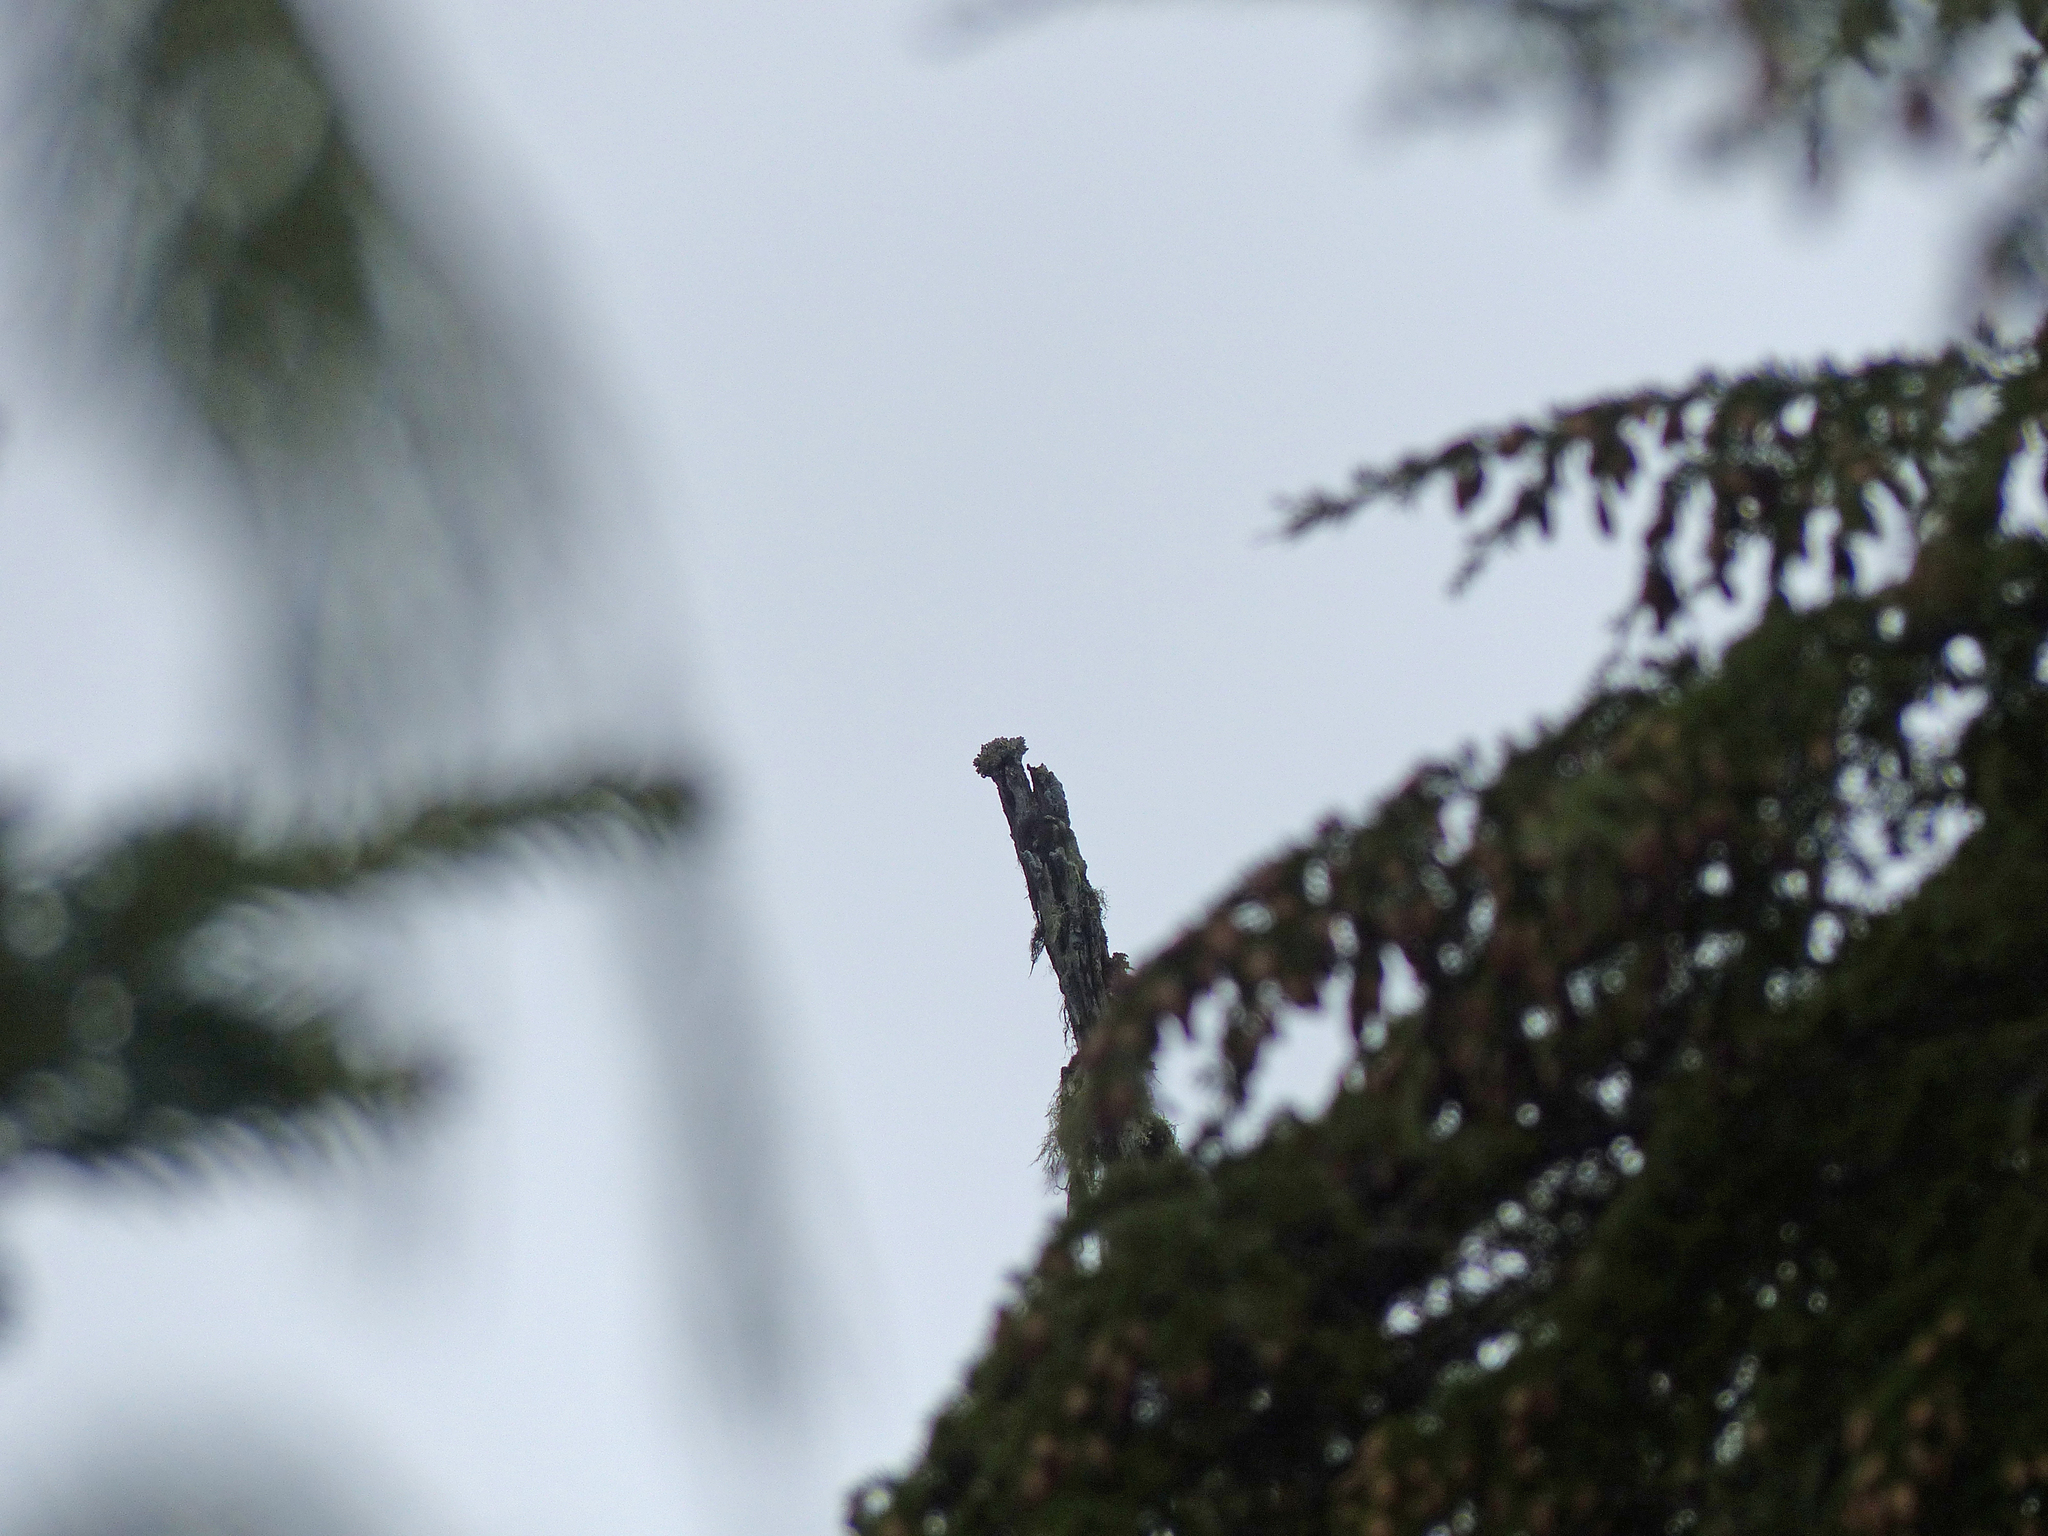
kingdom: Fungi
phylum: Ascomycota
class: Lecanoromycetes
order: Caliciales
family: Caliciaceae
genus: Acroscyphus
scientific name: Acroscyphus sphaerophoroides
